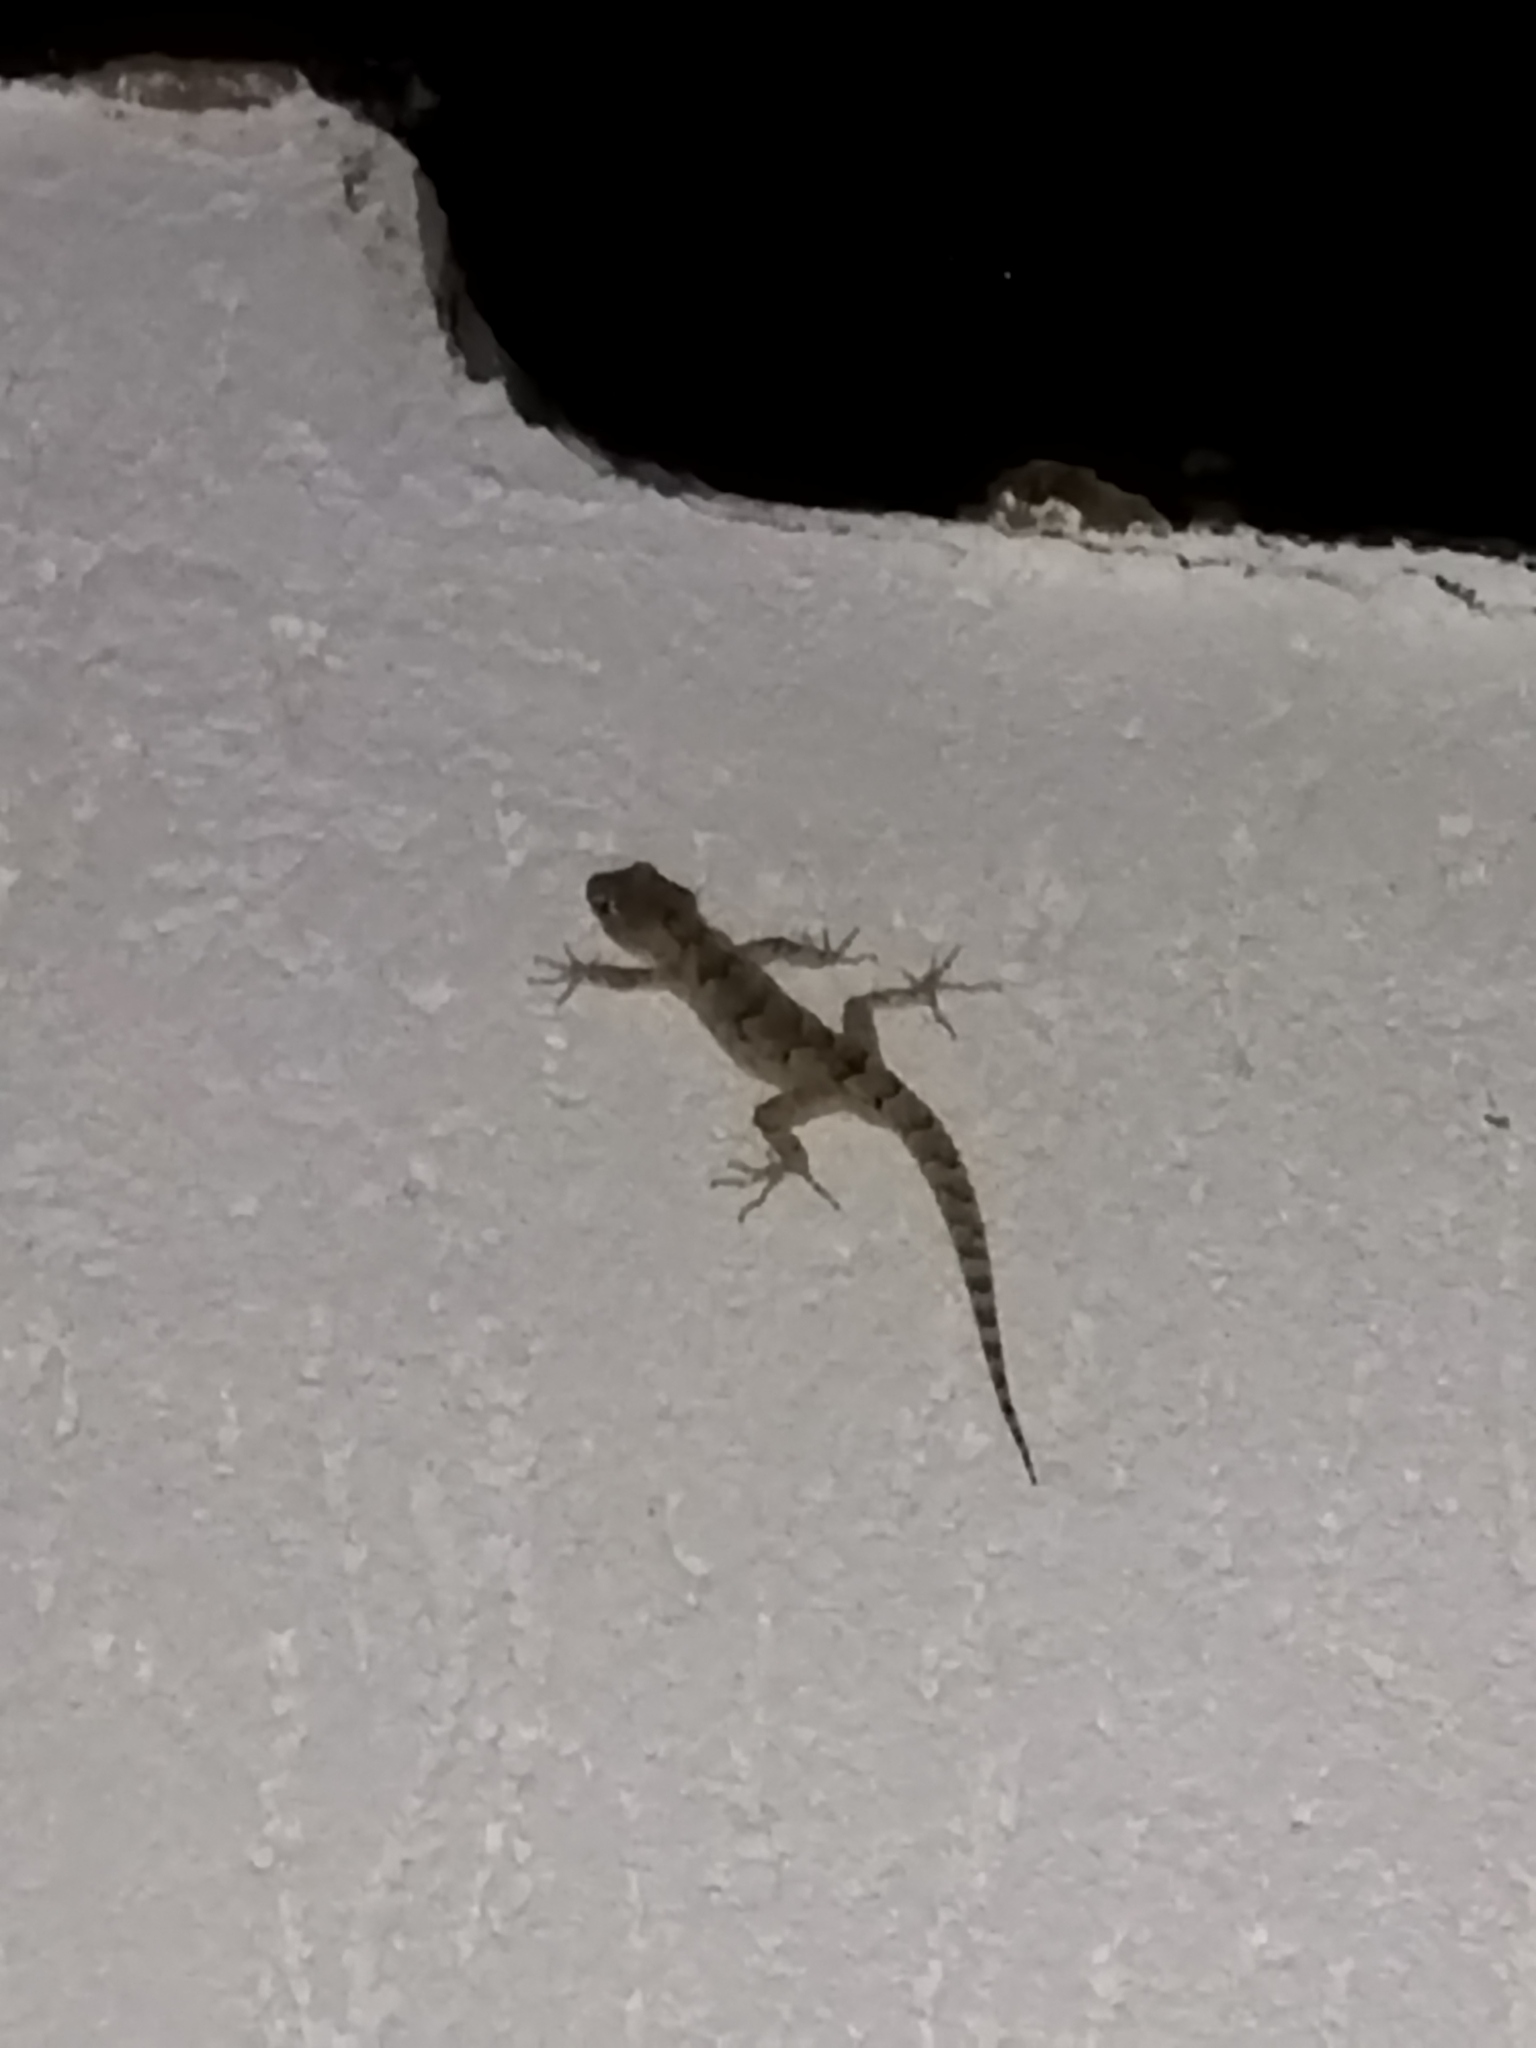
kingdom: Animalia
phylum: Chordata
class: Squamata
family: Gekkonidae
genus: Mediodactylus
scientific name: Mediodactylus kotschyi
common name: Kotschy's gecko
